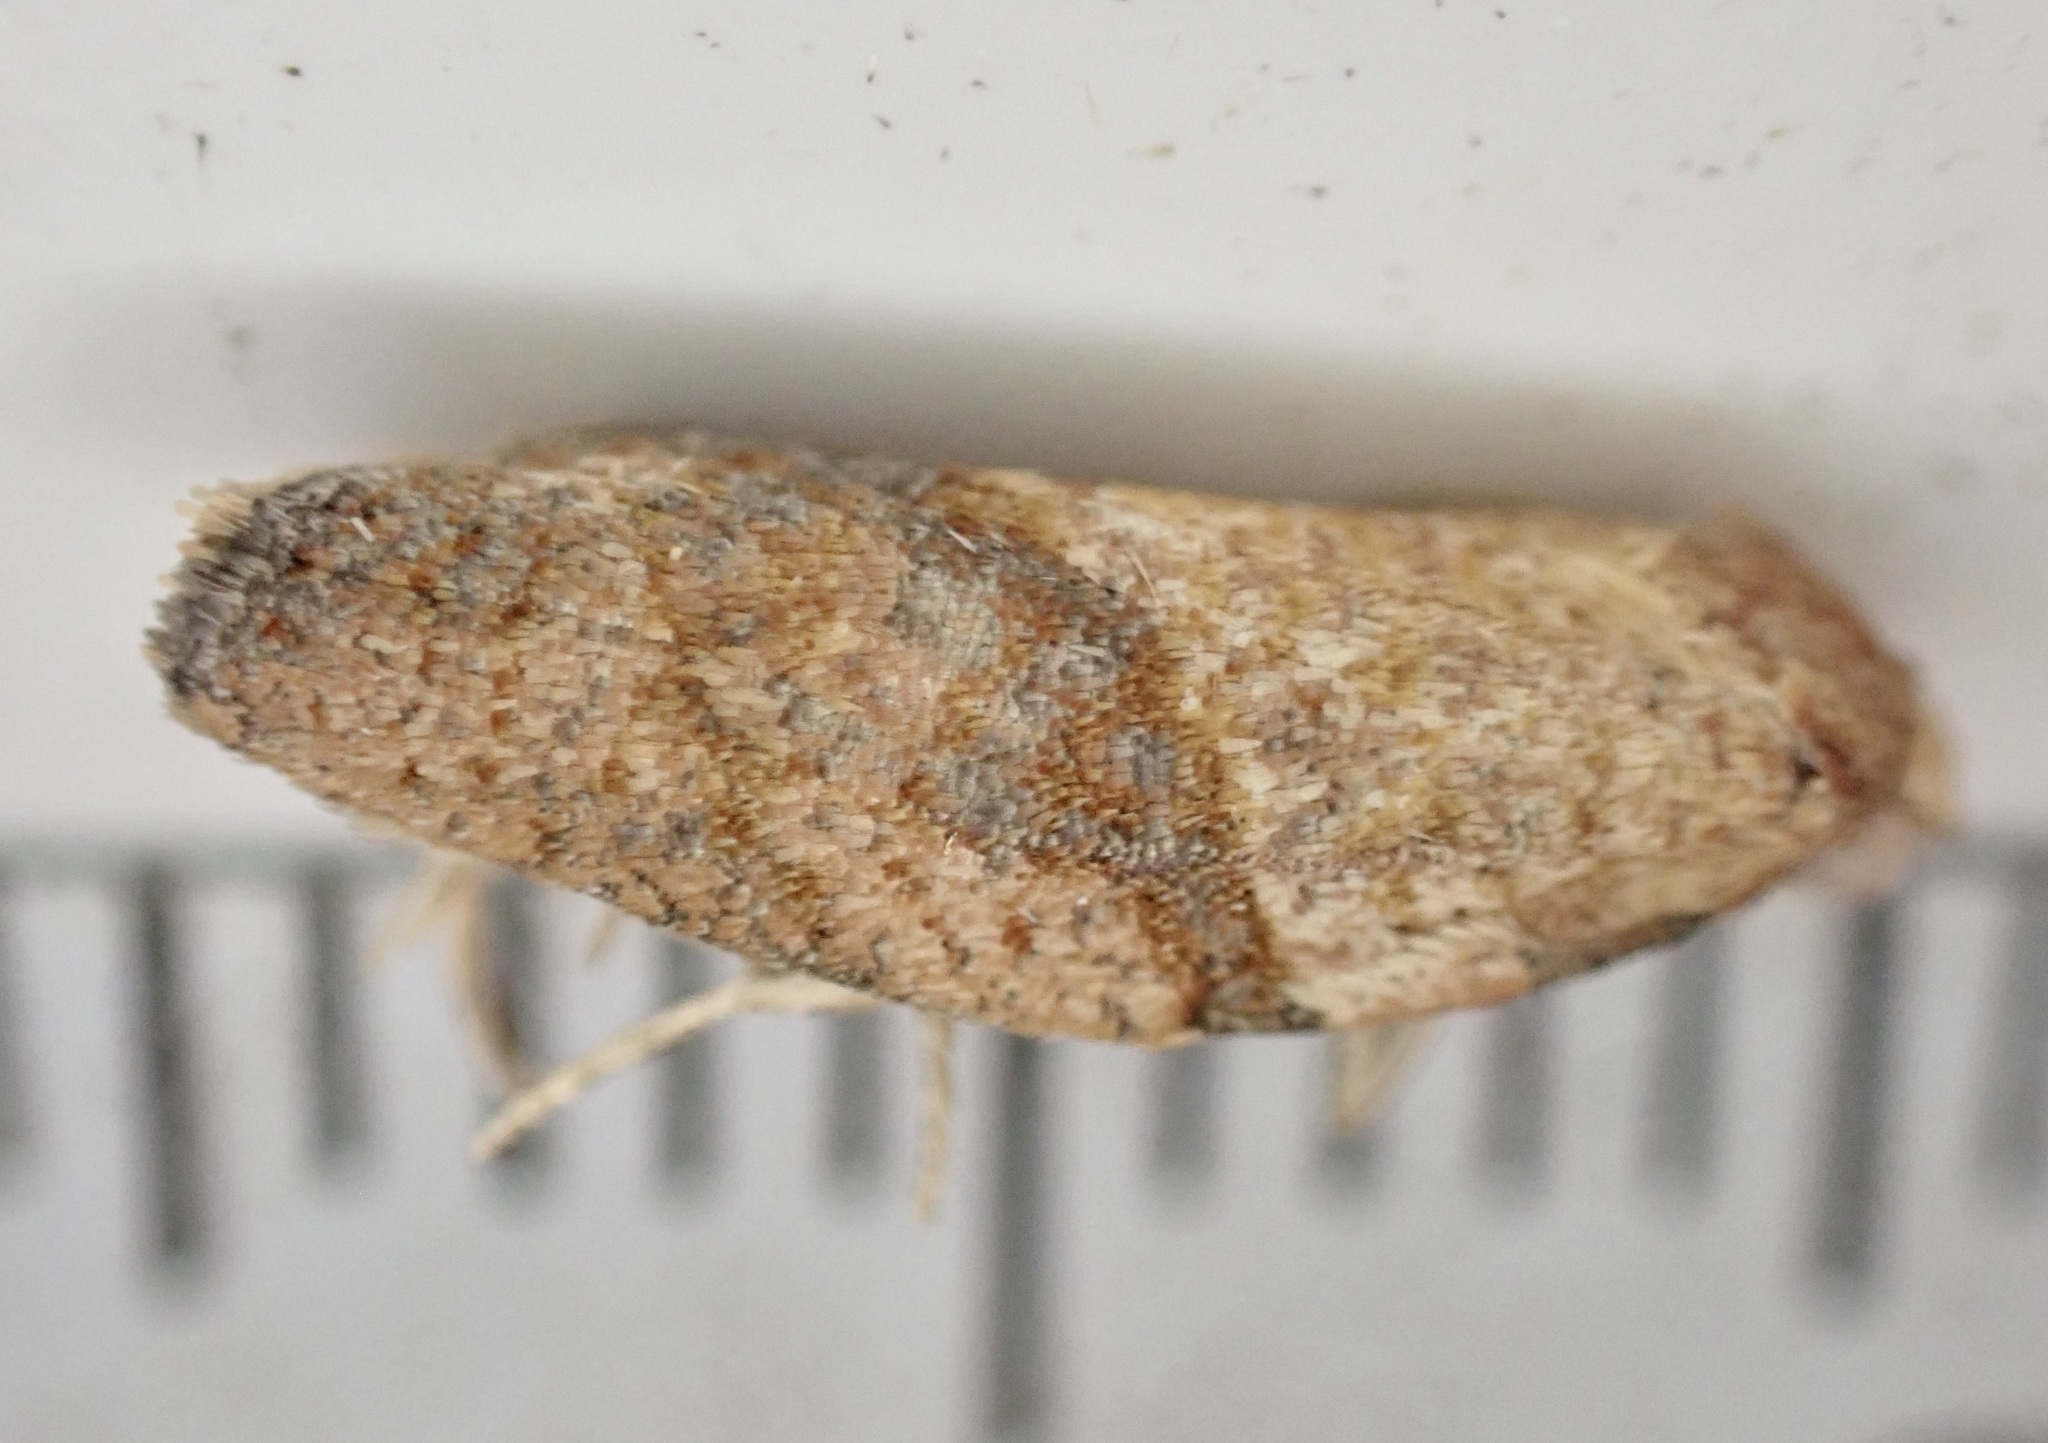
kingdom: Animalia
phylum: Arthropoda
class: Insecta
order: Lepidoptera
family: Tortricidae
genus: Epiphyas
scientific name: Epiphyas postvittana
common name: Light brown apple moth
